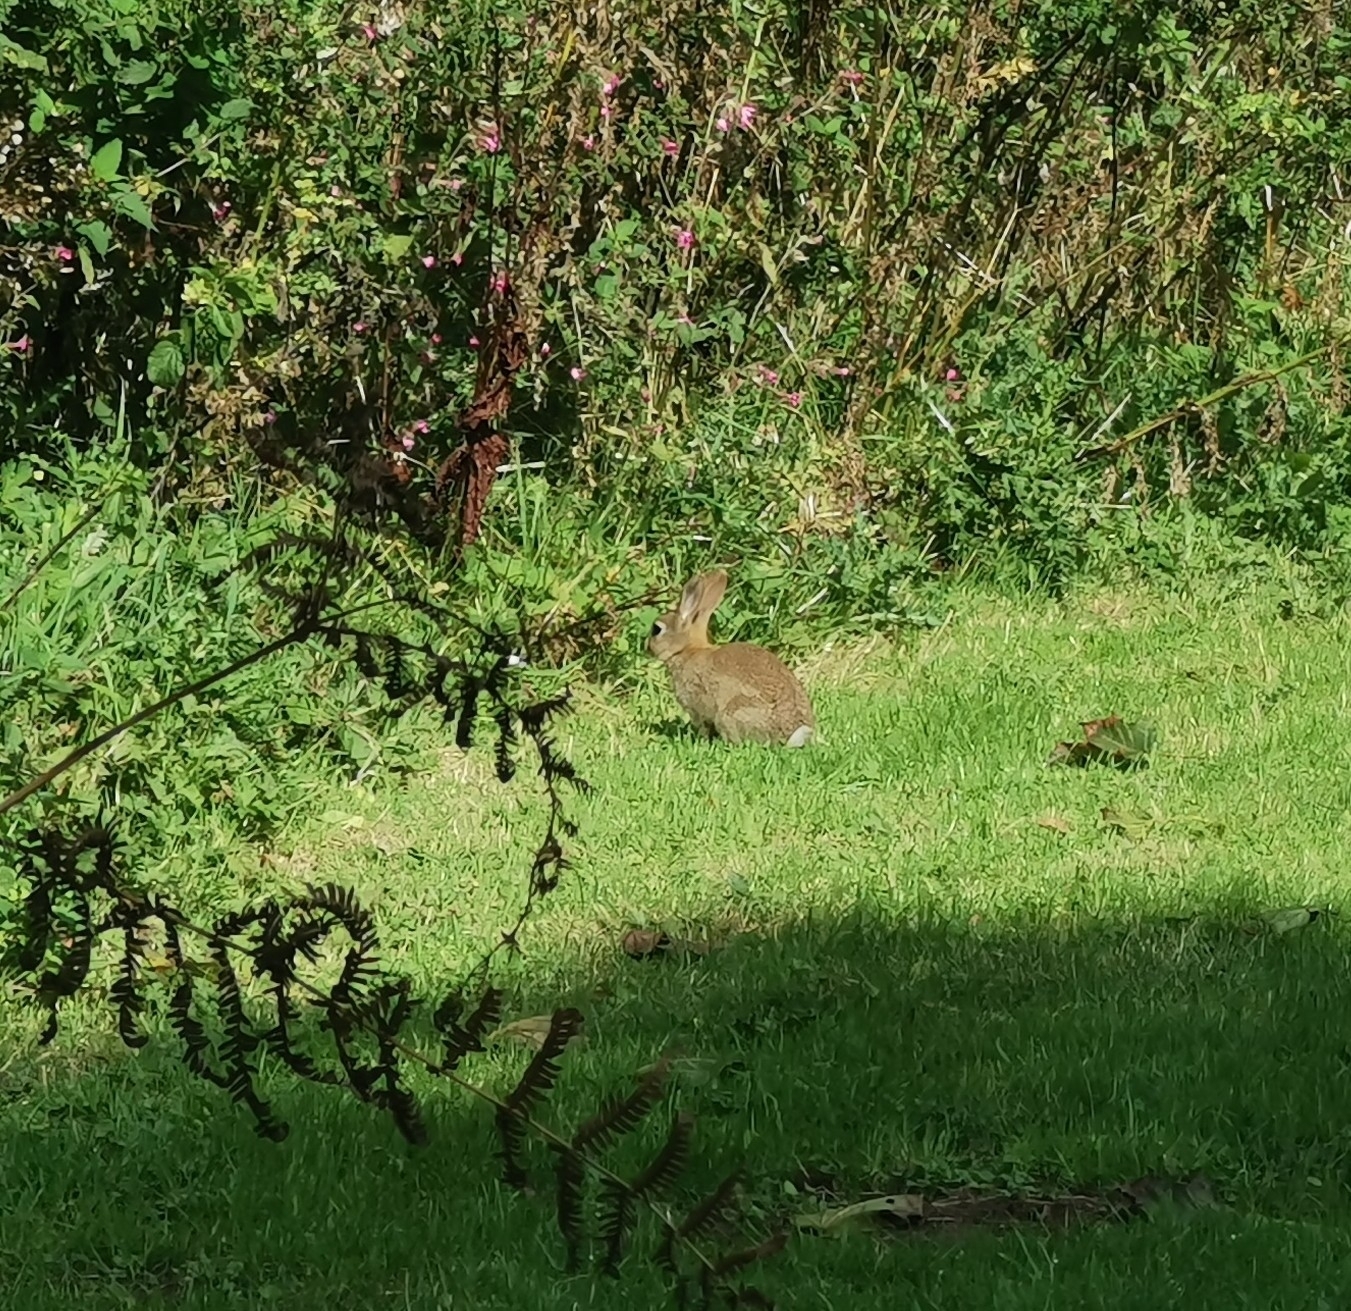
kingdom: Animalia
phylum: Chordata
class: Mammalia
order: Lagomorpha
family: Leporidae
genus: Oryctolagus
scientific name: Oryctolagus cuniculus
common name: European rabbit
